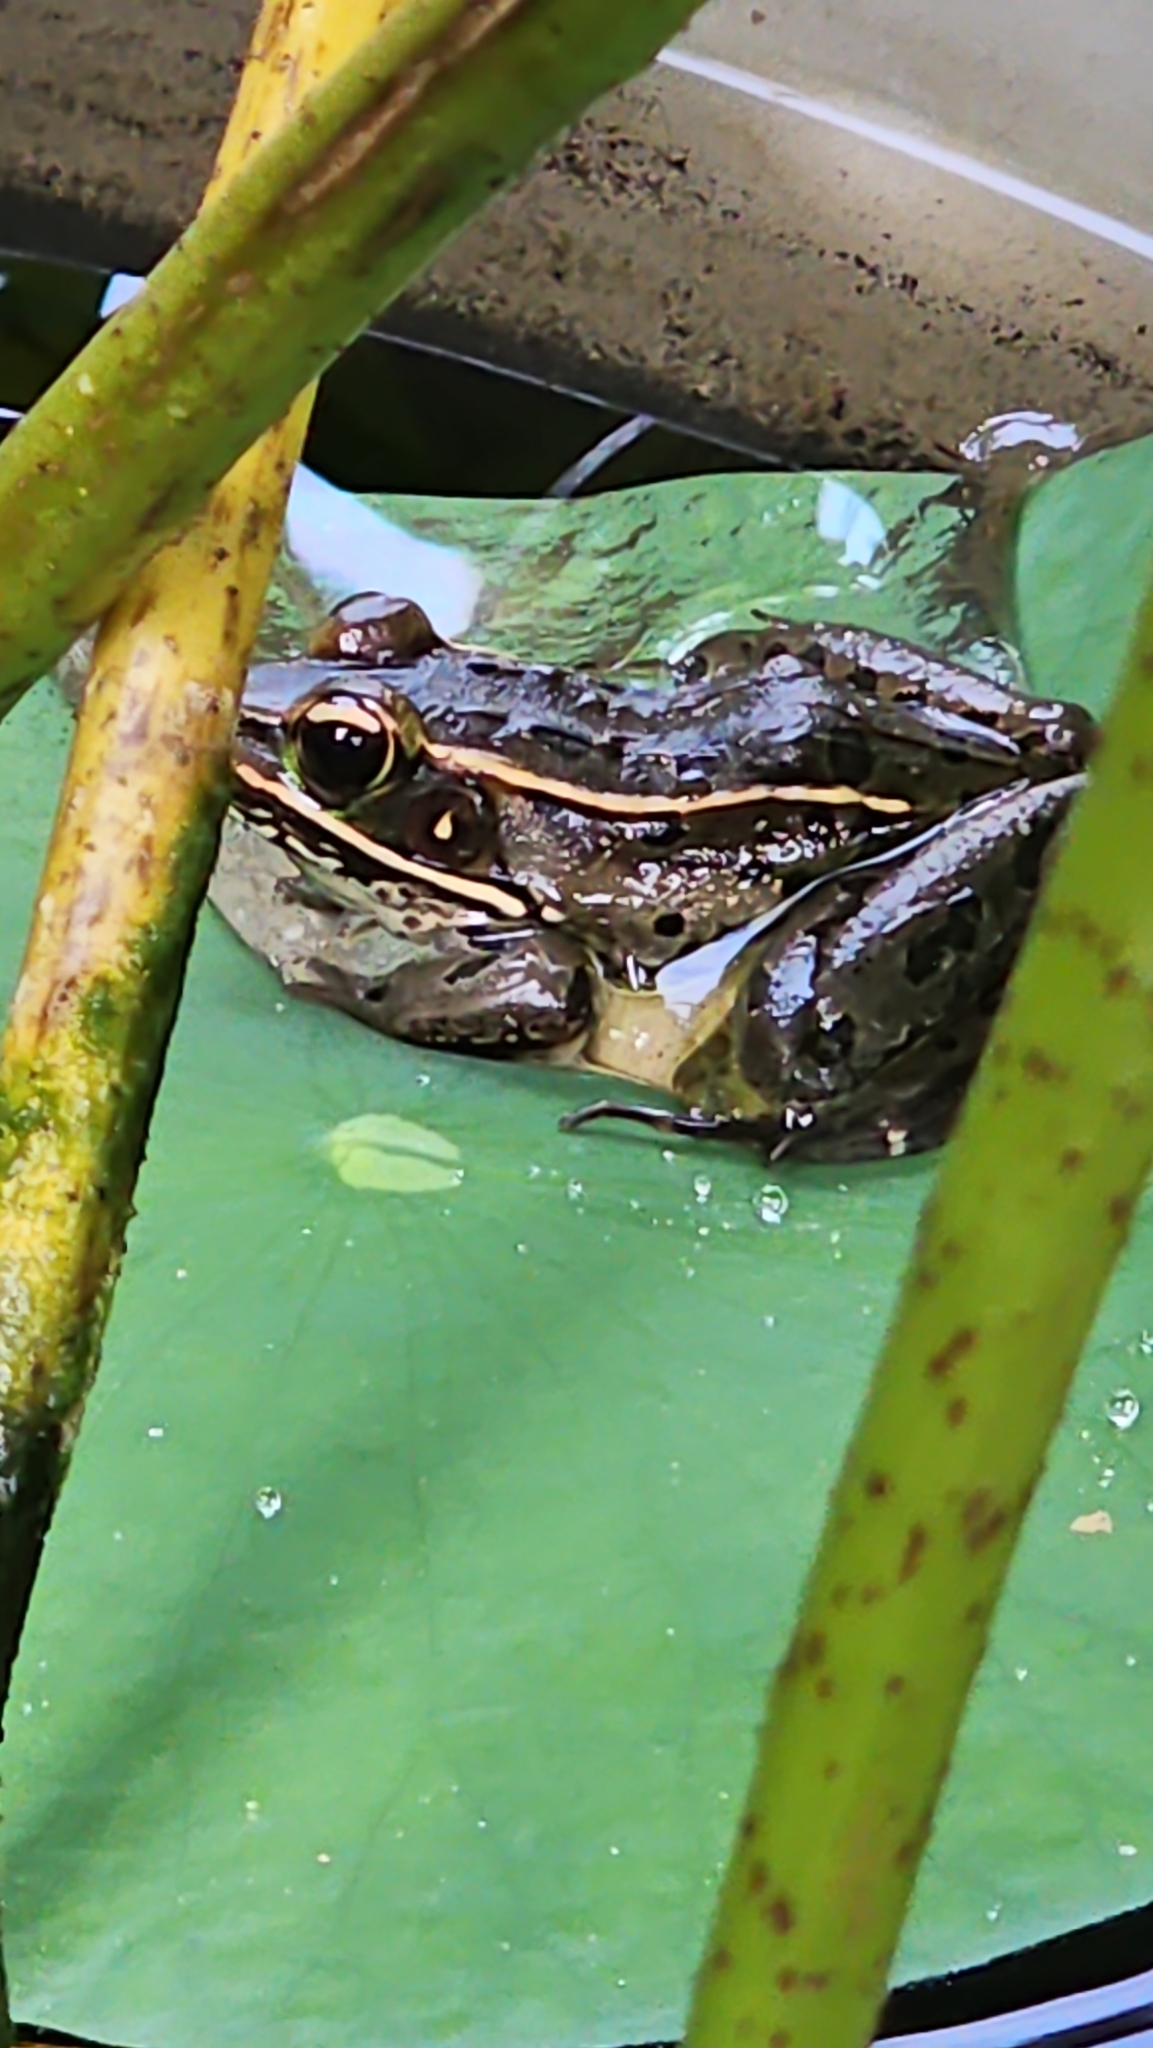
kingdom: Animalia
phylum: Chordata
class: Amphibia
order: Anura
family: Ranidae
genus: Lithobates
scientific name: Lithobates sphenocephalus
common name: Southern leopard frog
